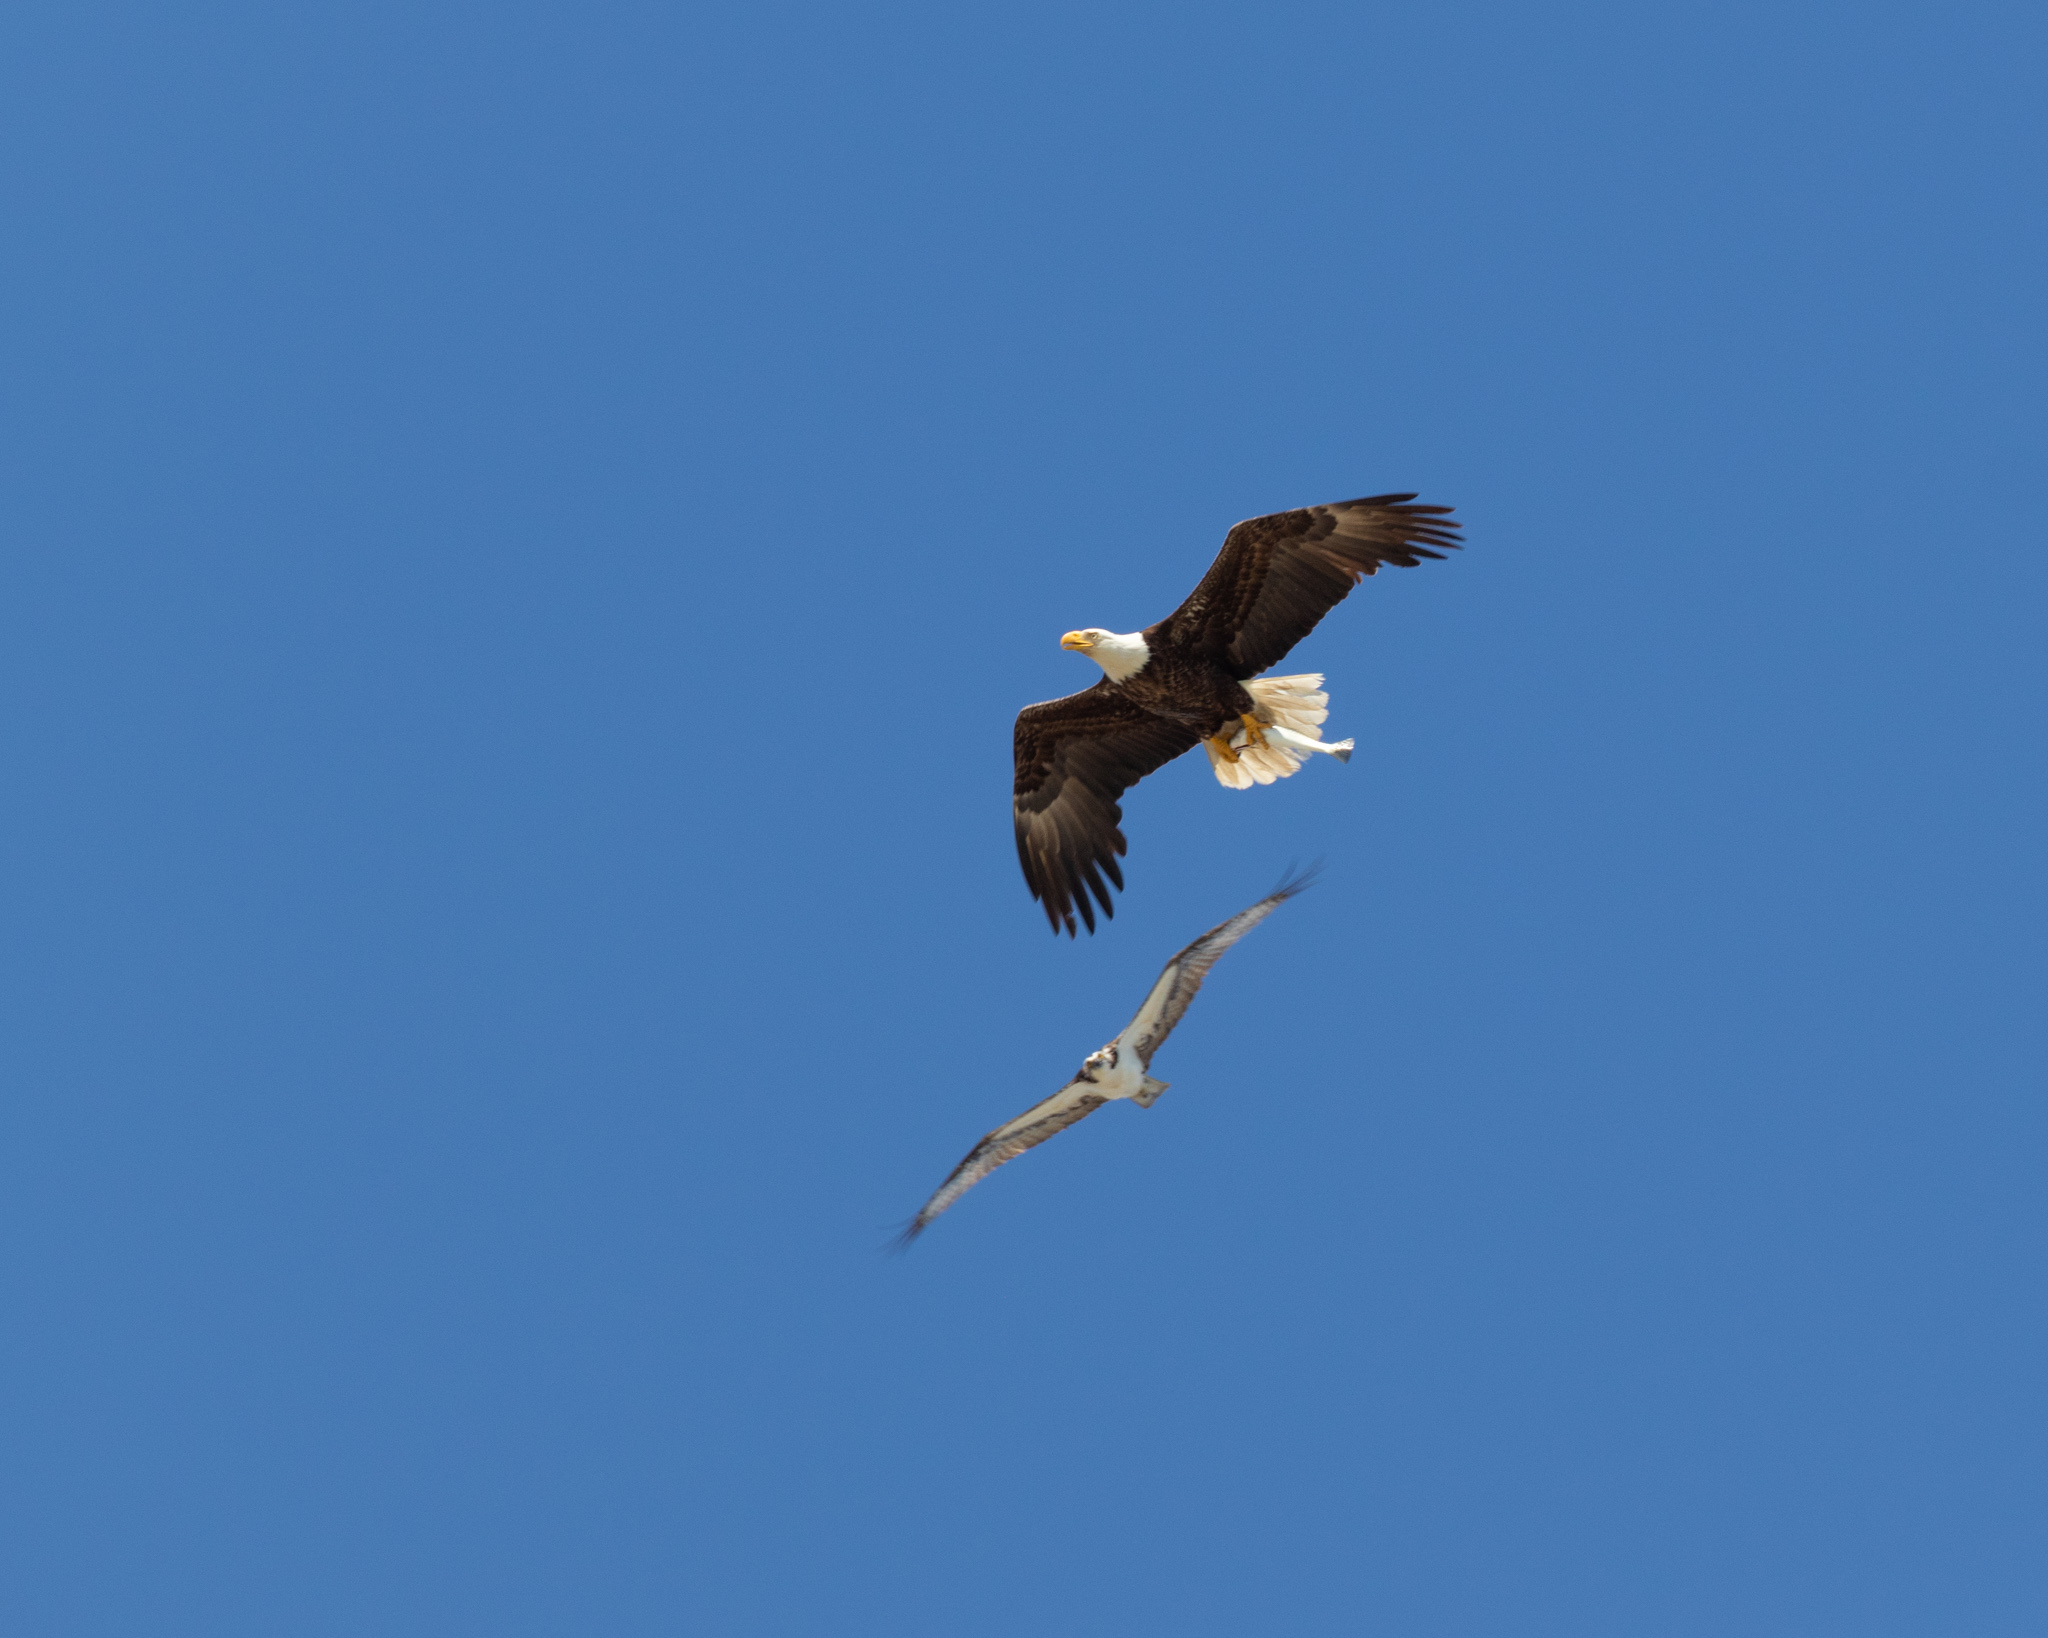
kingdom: Animalia
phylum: Chordata
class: Aves
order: Accipitriformes
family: Accipitridae
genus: Haliaeetus
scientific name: Haliaeetus leucocephalus
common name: Bald eagle
